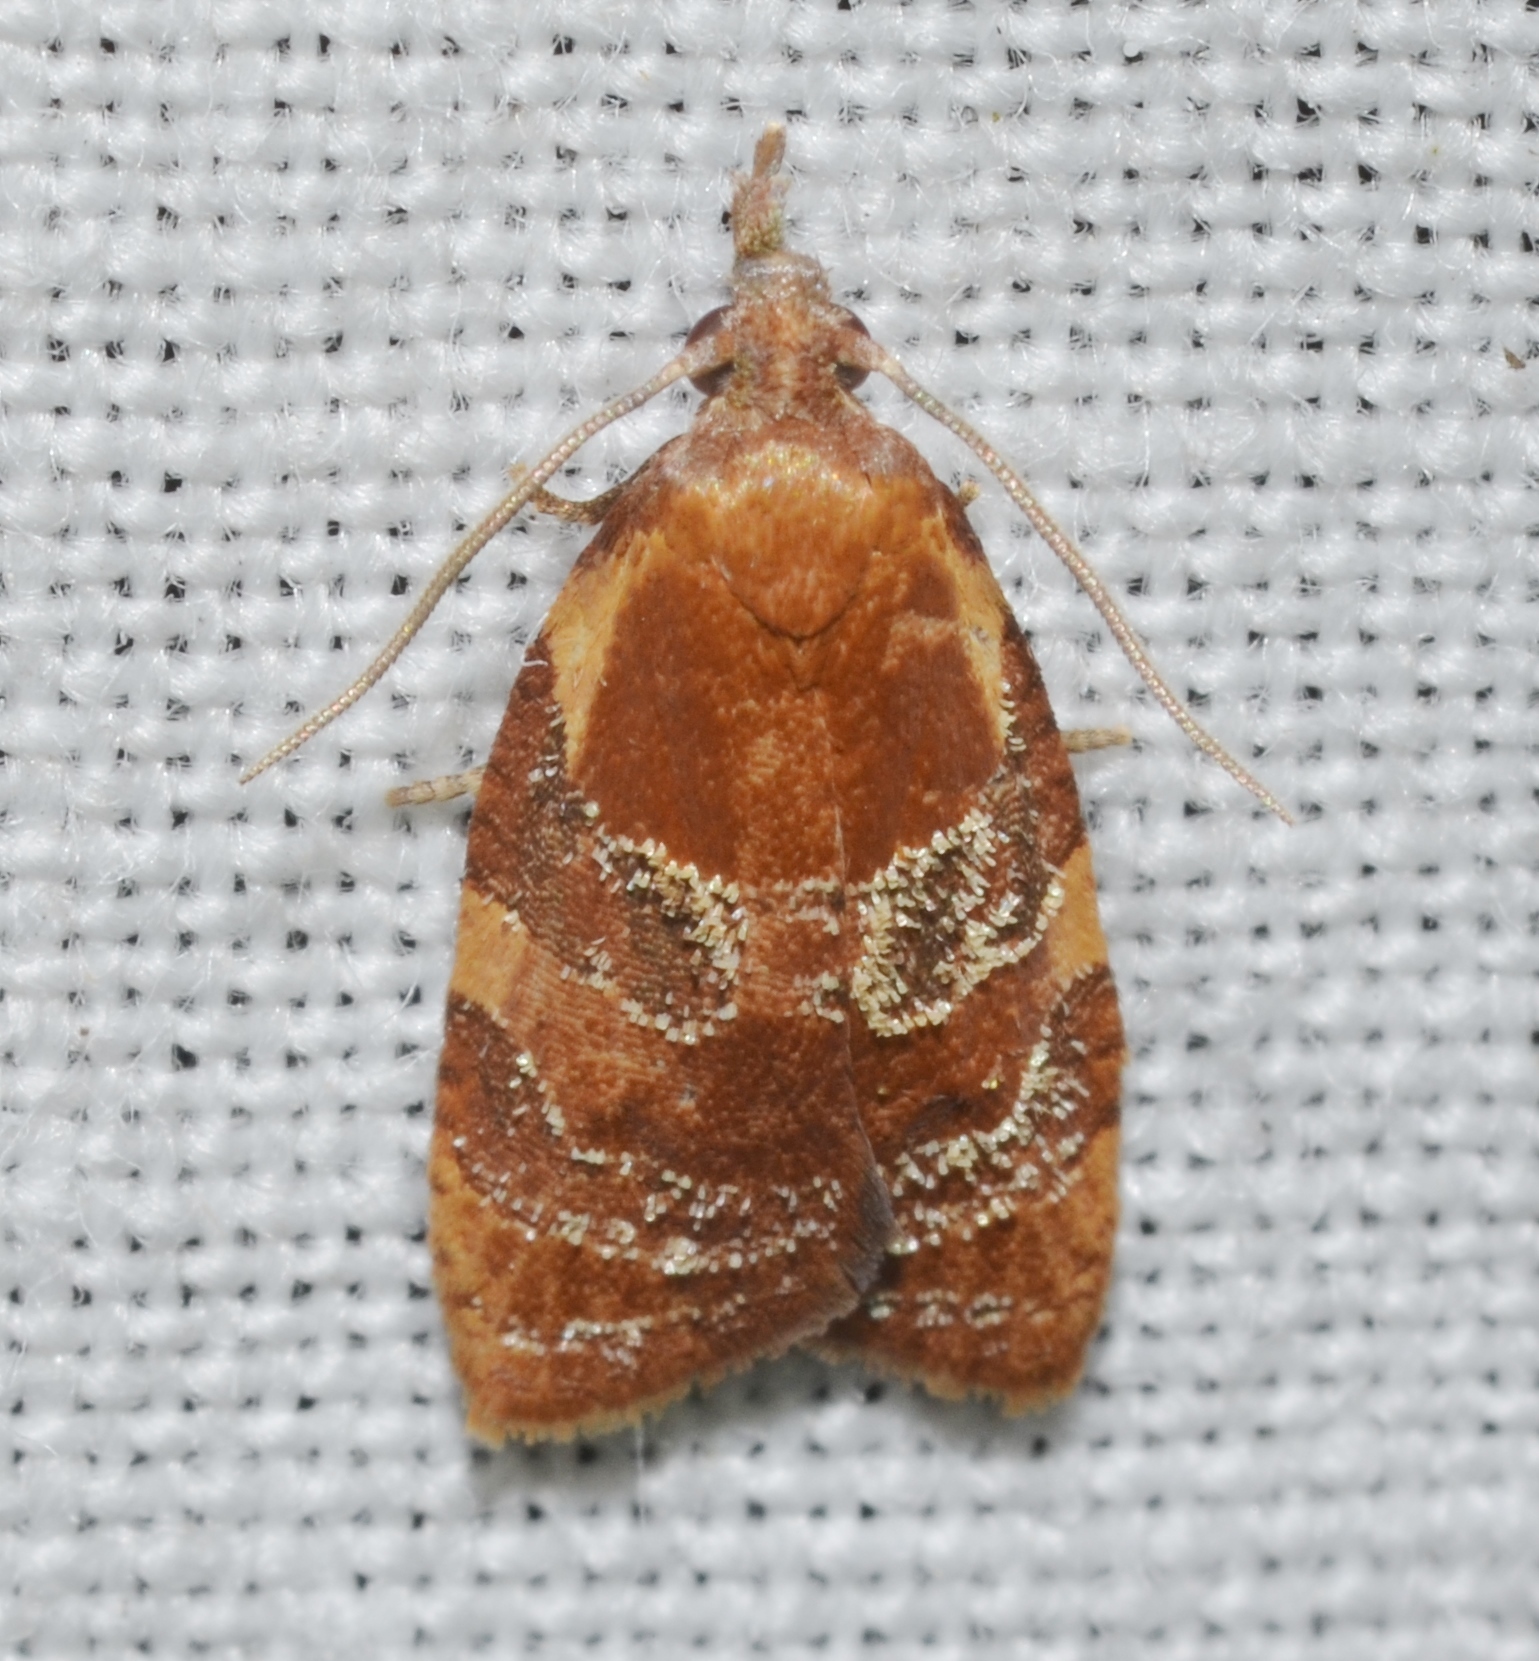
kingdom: Animalia
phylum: Arthropoda
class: Insecta
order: Lepidoptera
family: Tortricidae
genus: Cenopis
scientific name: Cenopis diluticostana
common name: Spring dead-leaf roller moth
